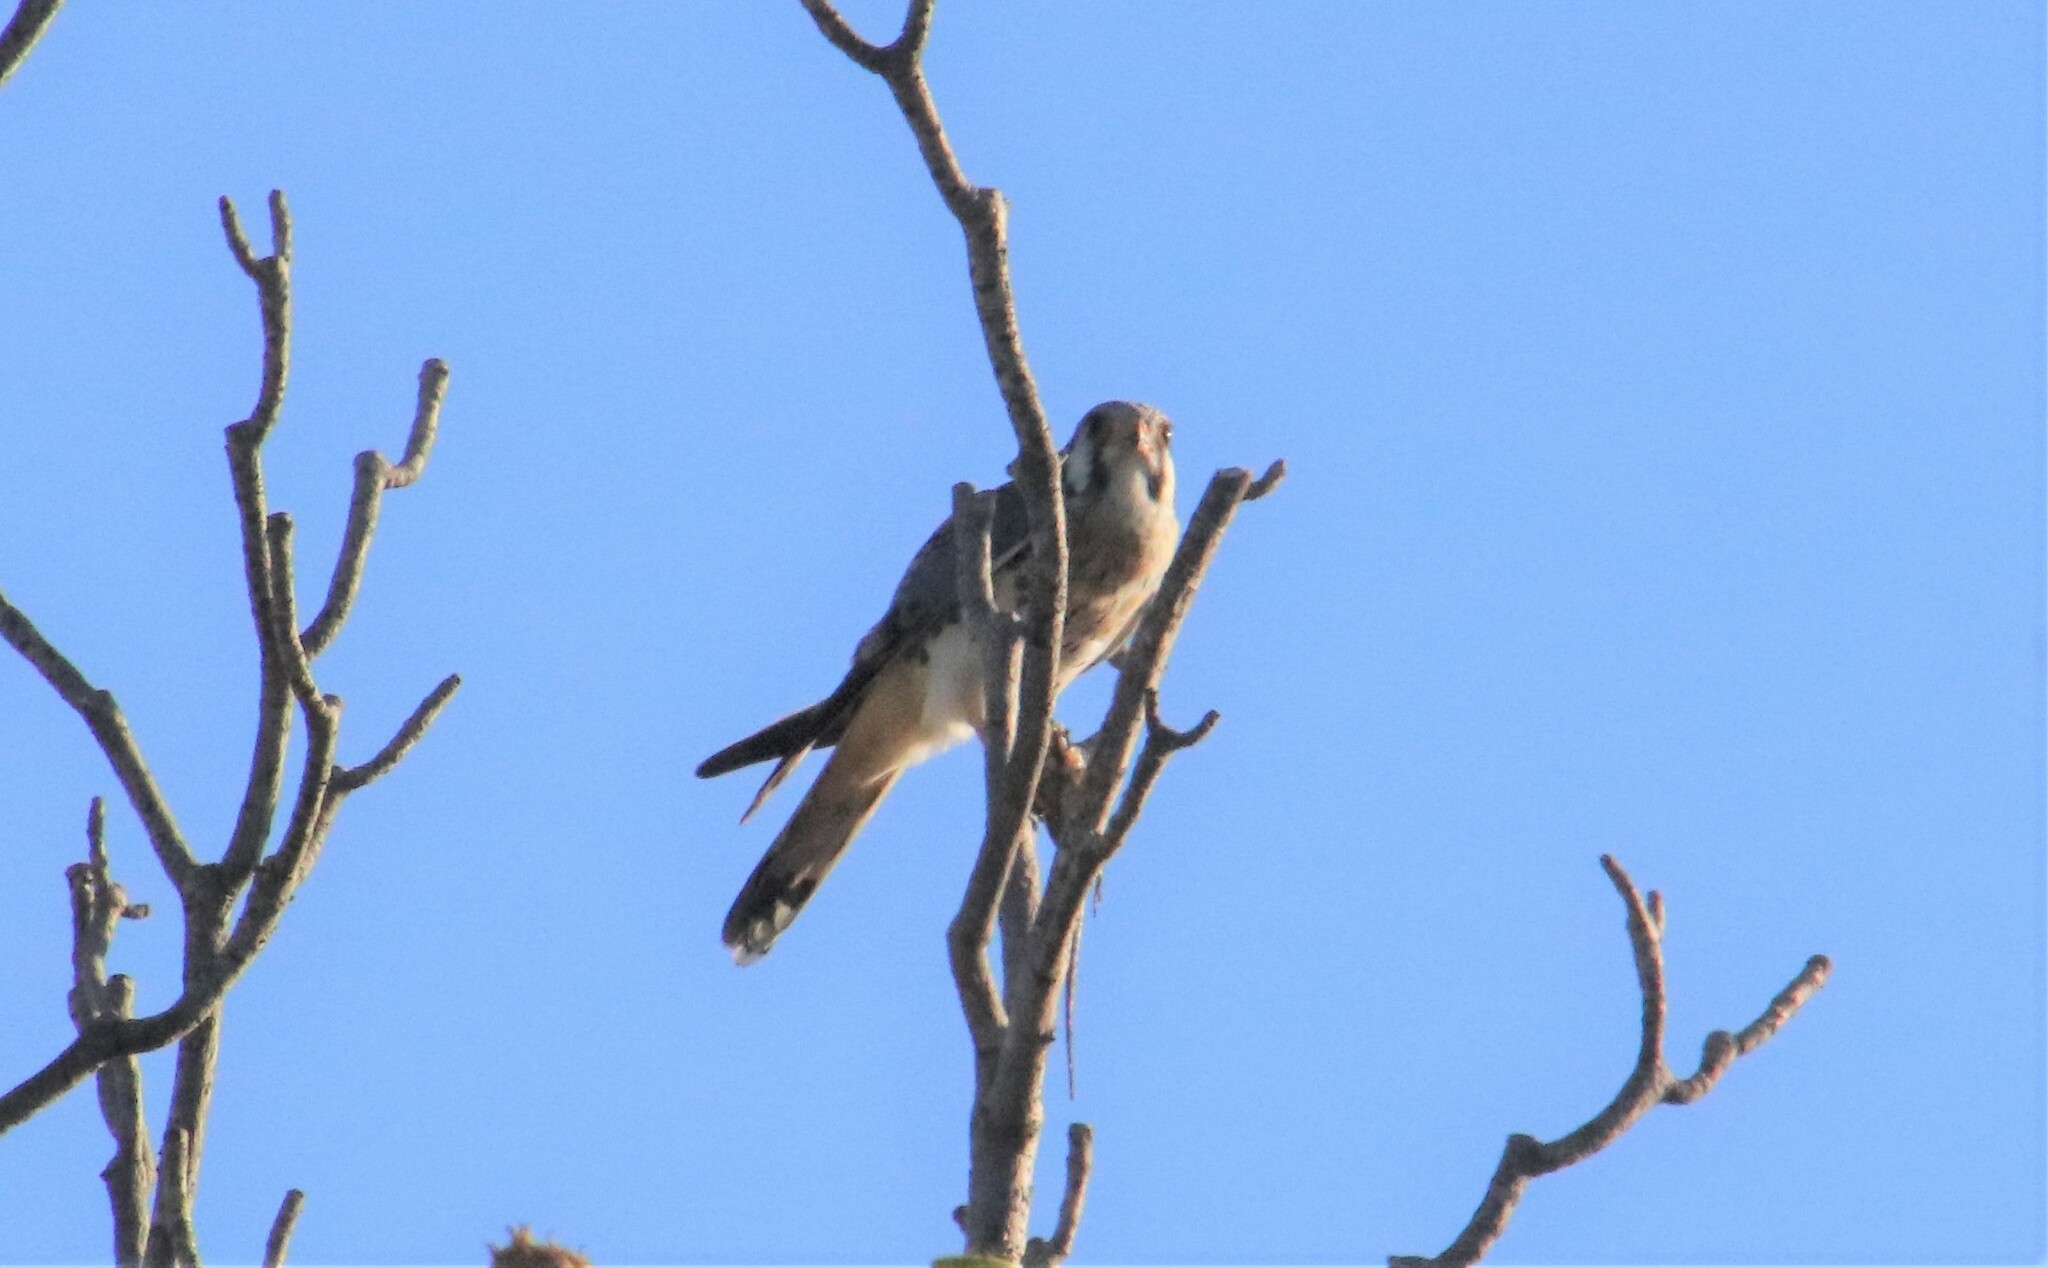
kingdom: Animalia
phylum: Chordata
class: Aves
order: Falconiformes
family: Falconidae
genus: Falco
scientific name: Falco sparverius
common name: American kestrel
